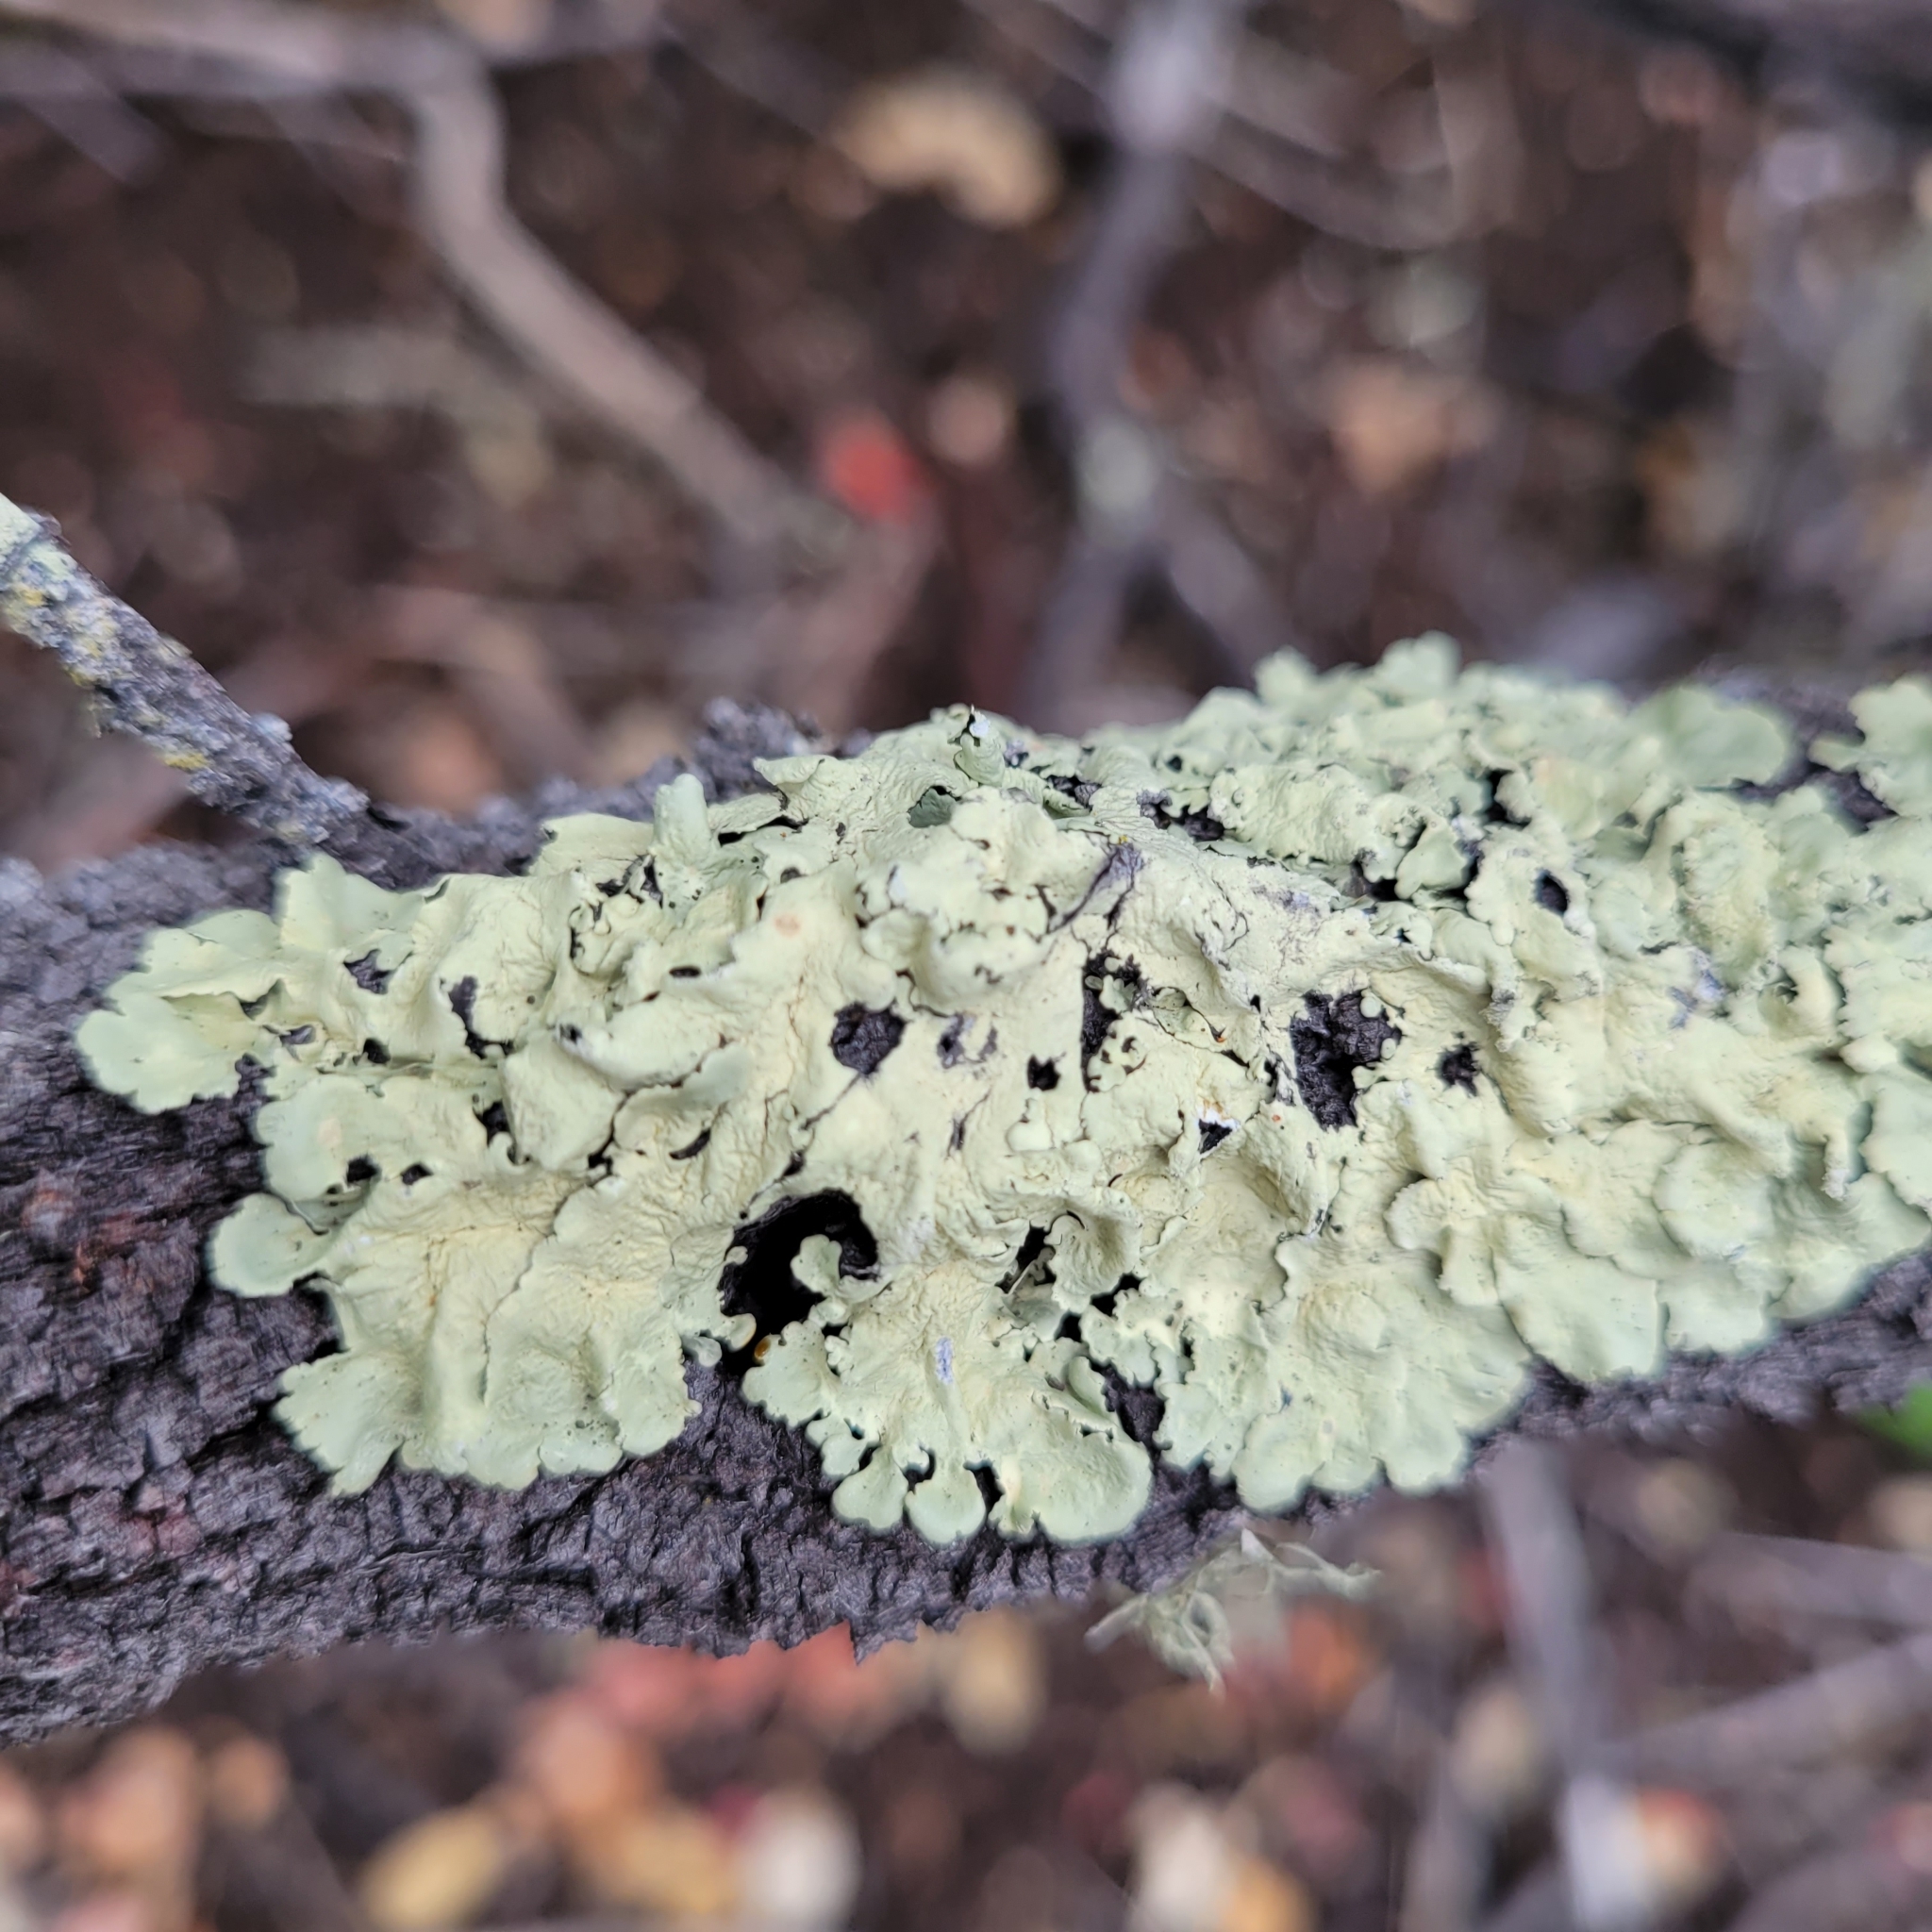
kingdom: Fungi
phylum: Ascomycota
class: Lecanoromycetes
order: Lecanorales
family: Parmeliaceae
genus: Flavoparmelia
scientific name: Flavoparmelia caperata
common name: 40-mile per hour lichen
